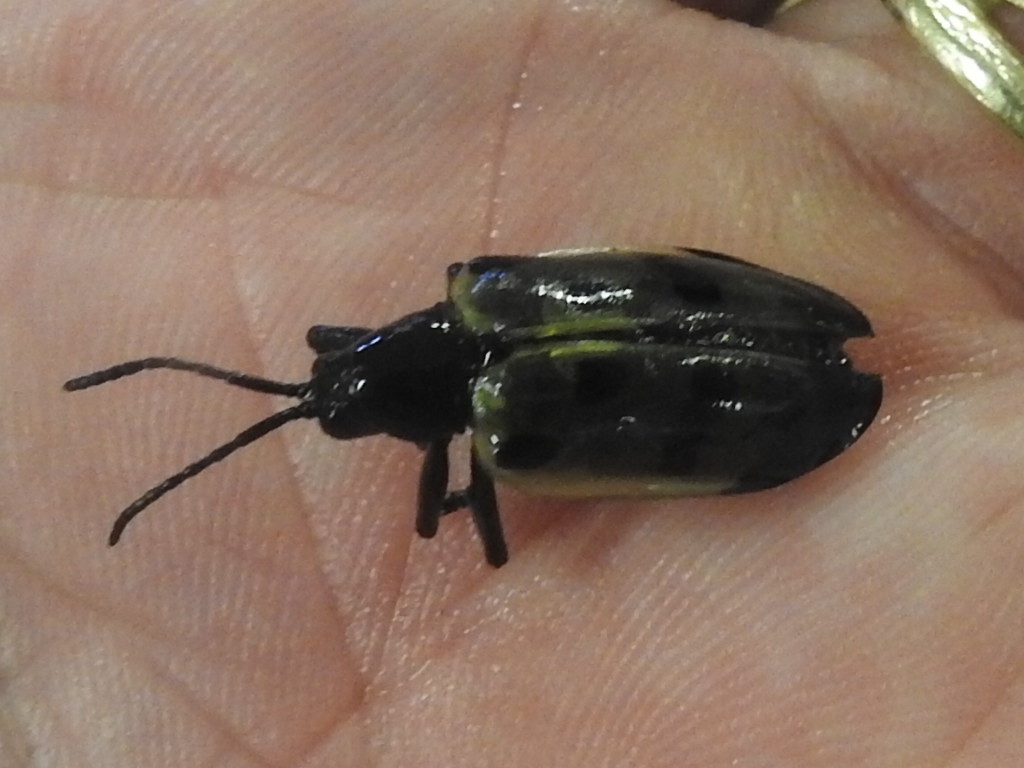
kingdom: Animalia
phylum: Arthropoda
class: Insecta
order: Coleoptera
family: Chrysomelidae
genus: Alurnus
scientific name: Alurnus ornatus
